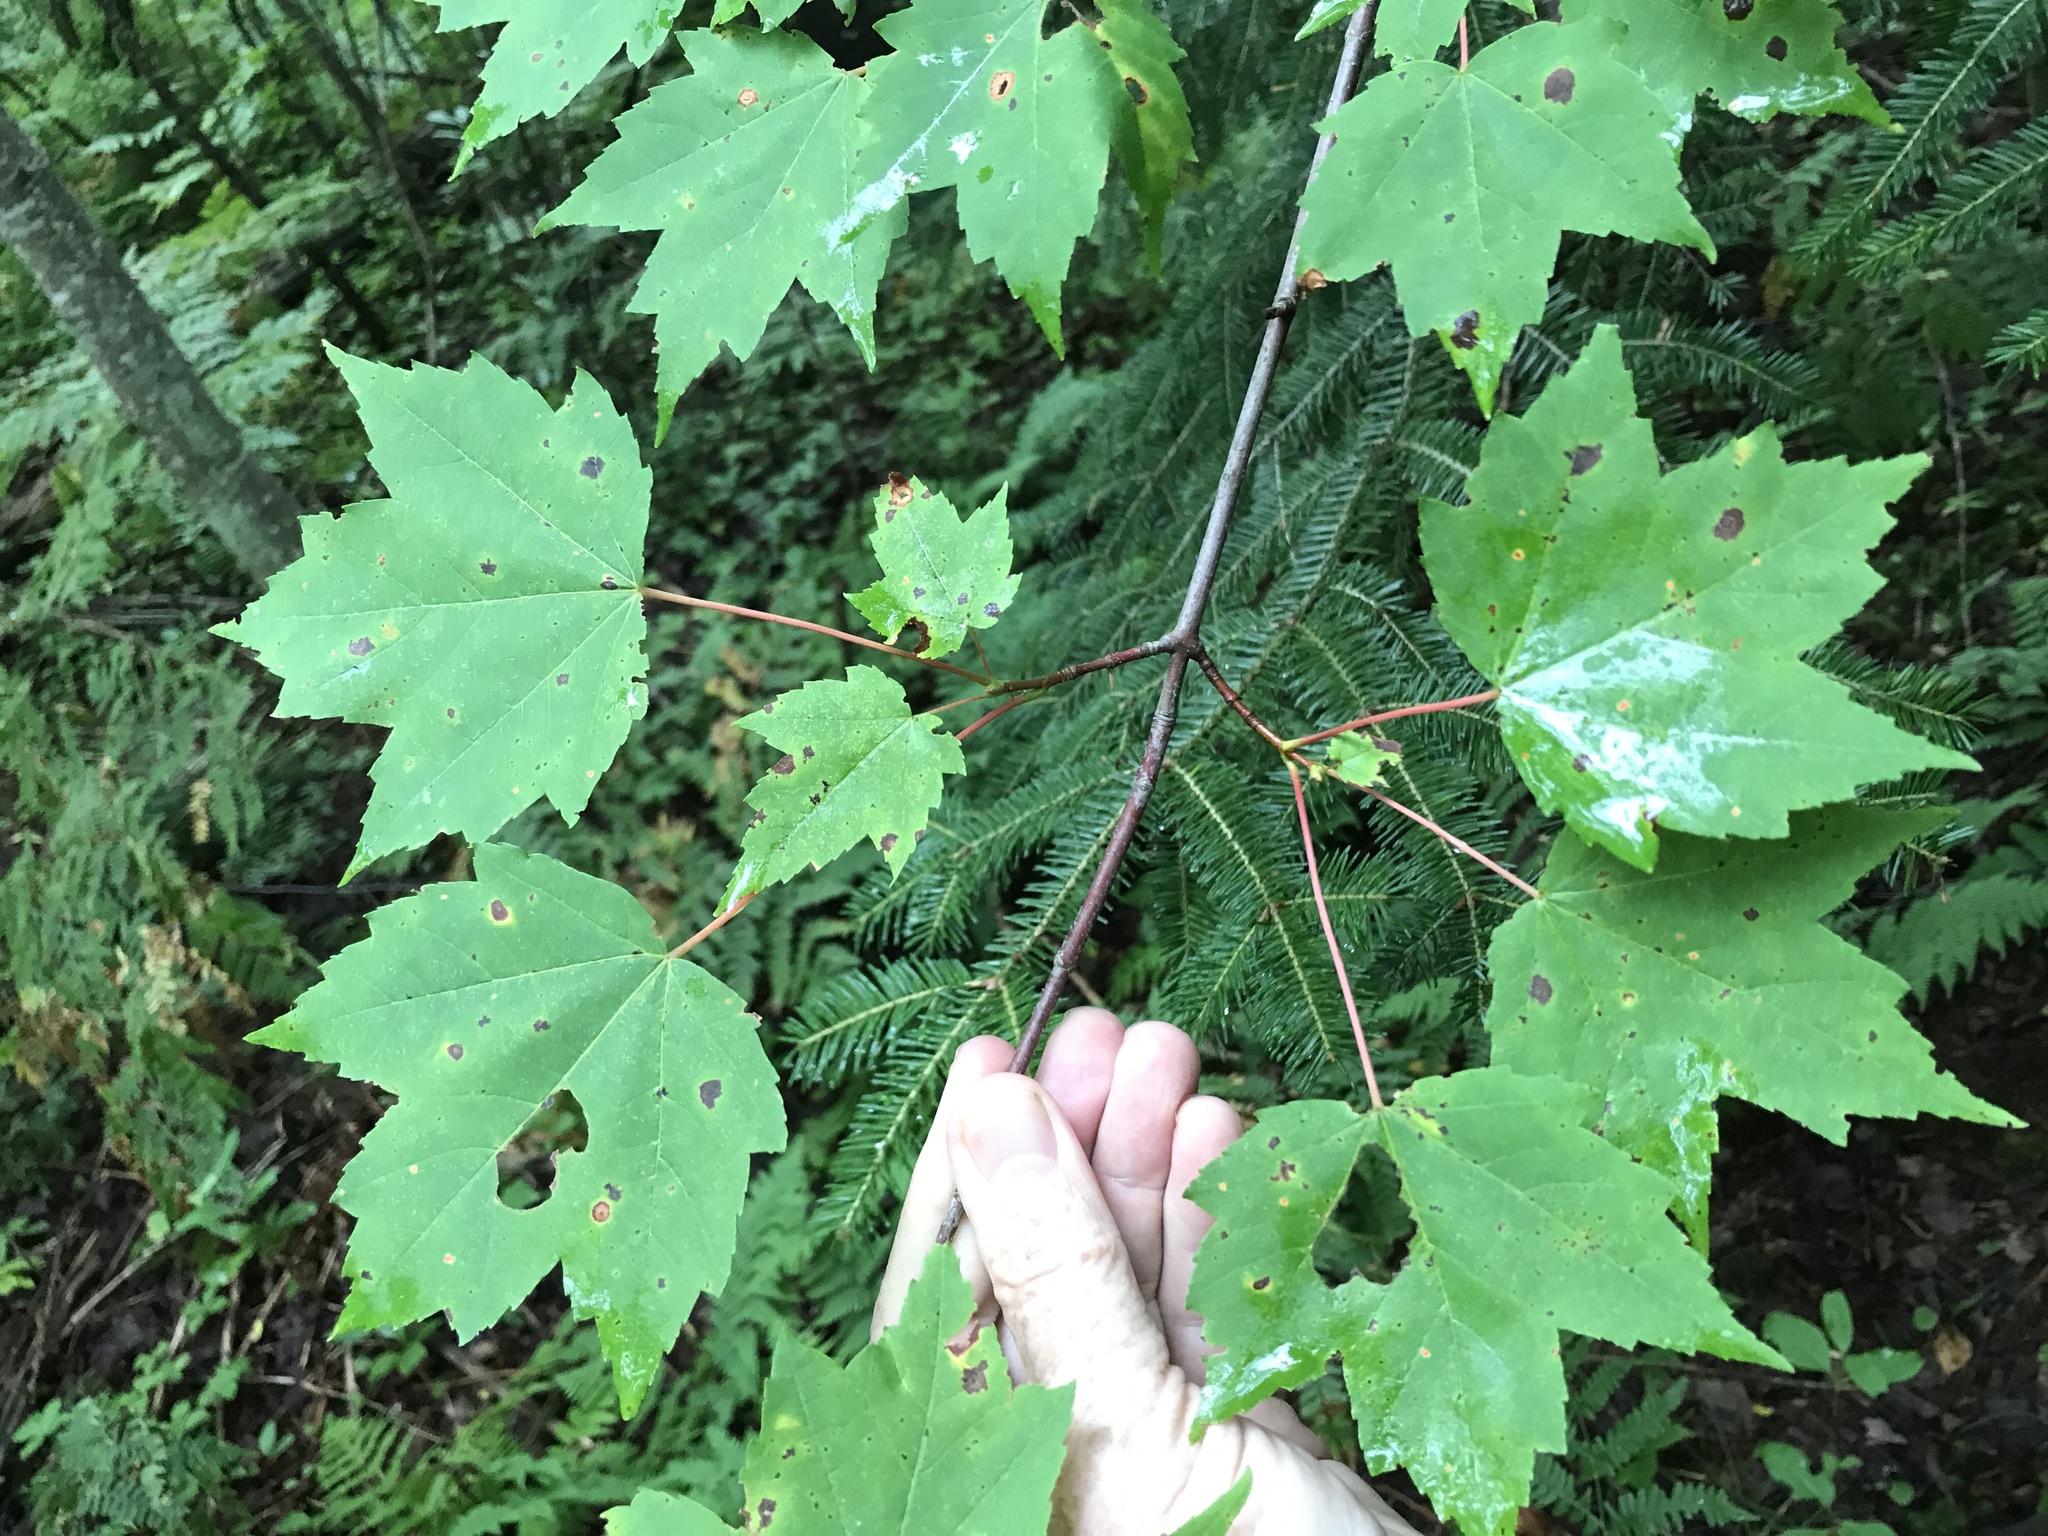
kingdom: Plantae
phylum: Tracheophyta
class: Magnoliopsida
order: Sapindales
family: Sapindaceae
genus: Acer
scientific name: Acer rubrum
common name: Red maple
